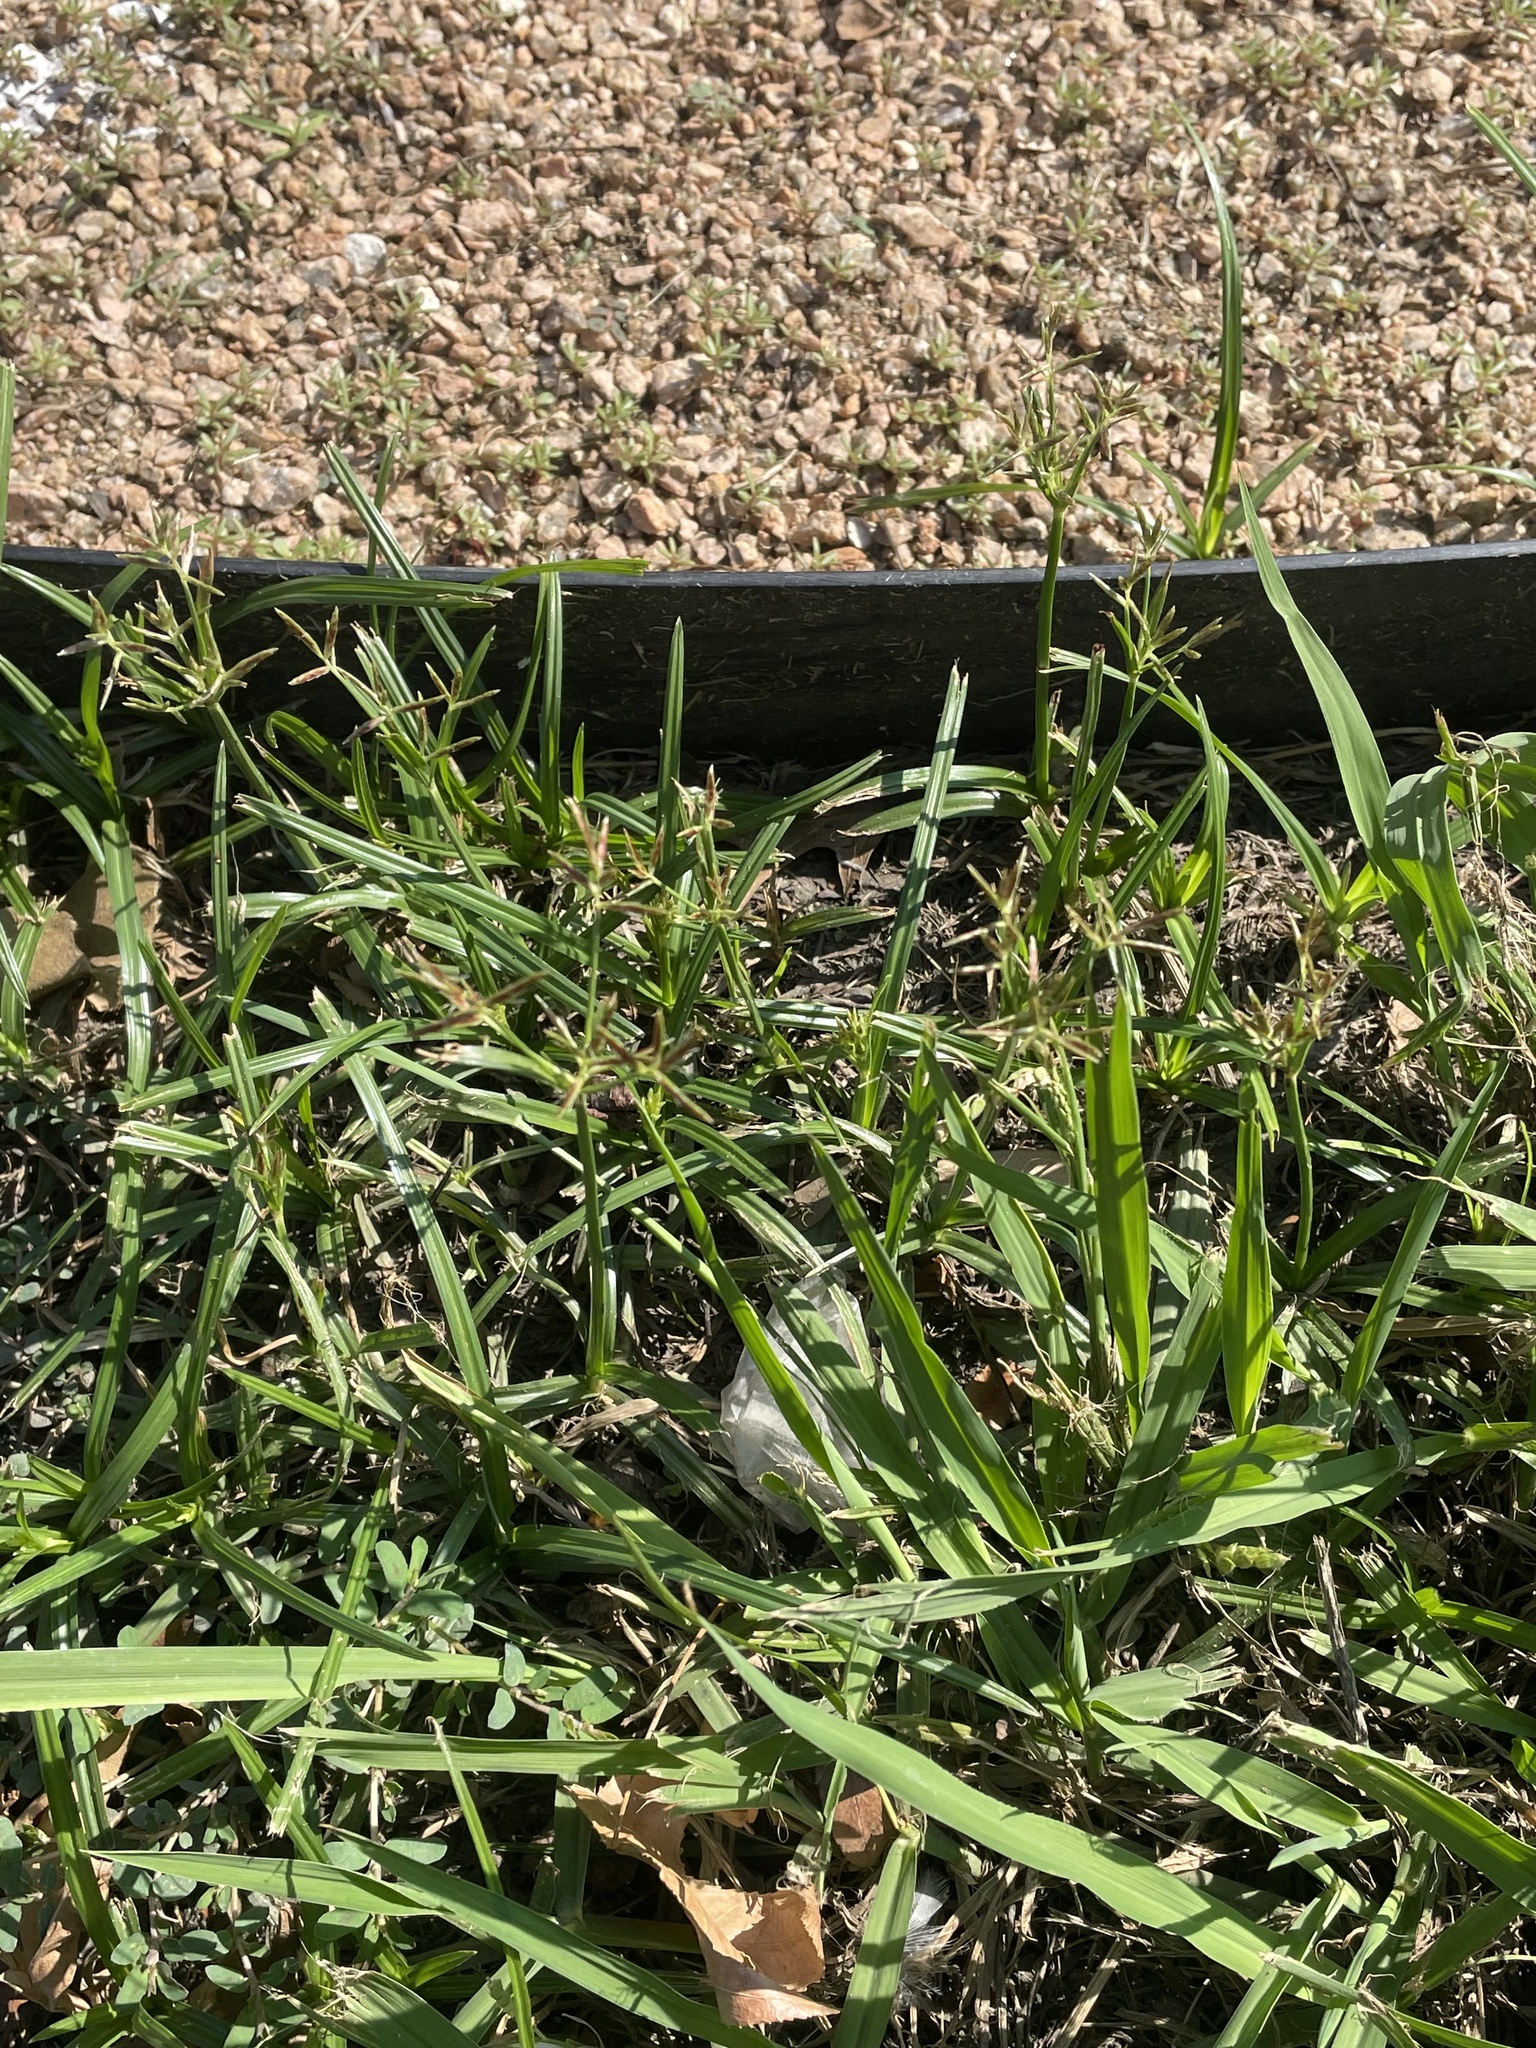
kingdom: Plantae
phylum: Tracheophyta
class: Liliopsida
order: Poales
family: Cyperaceae
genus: Cyperus
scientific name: Cyperus rotundus
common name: Nutgrass
